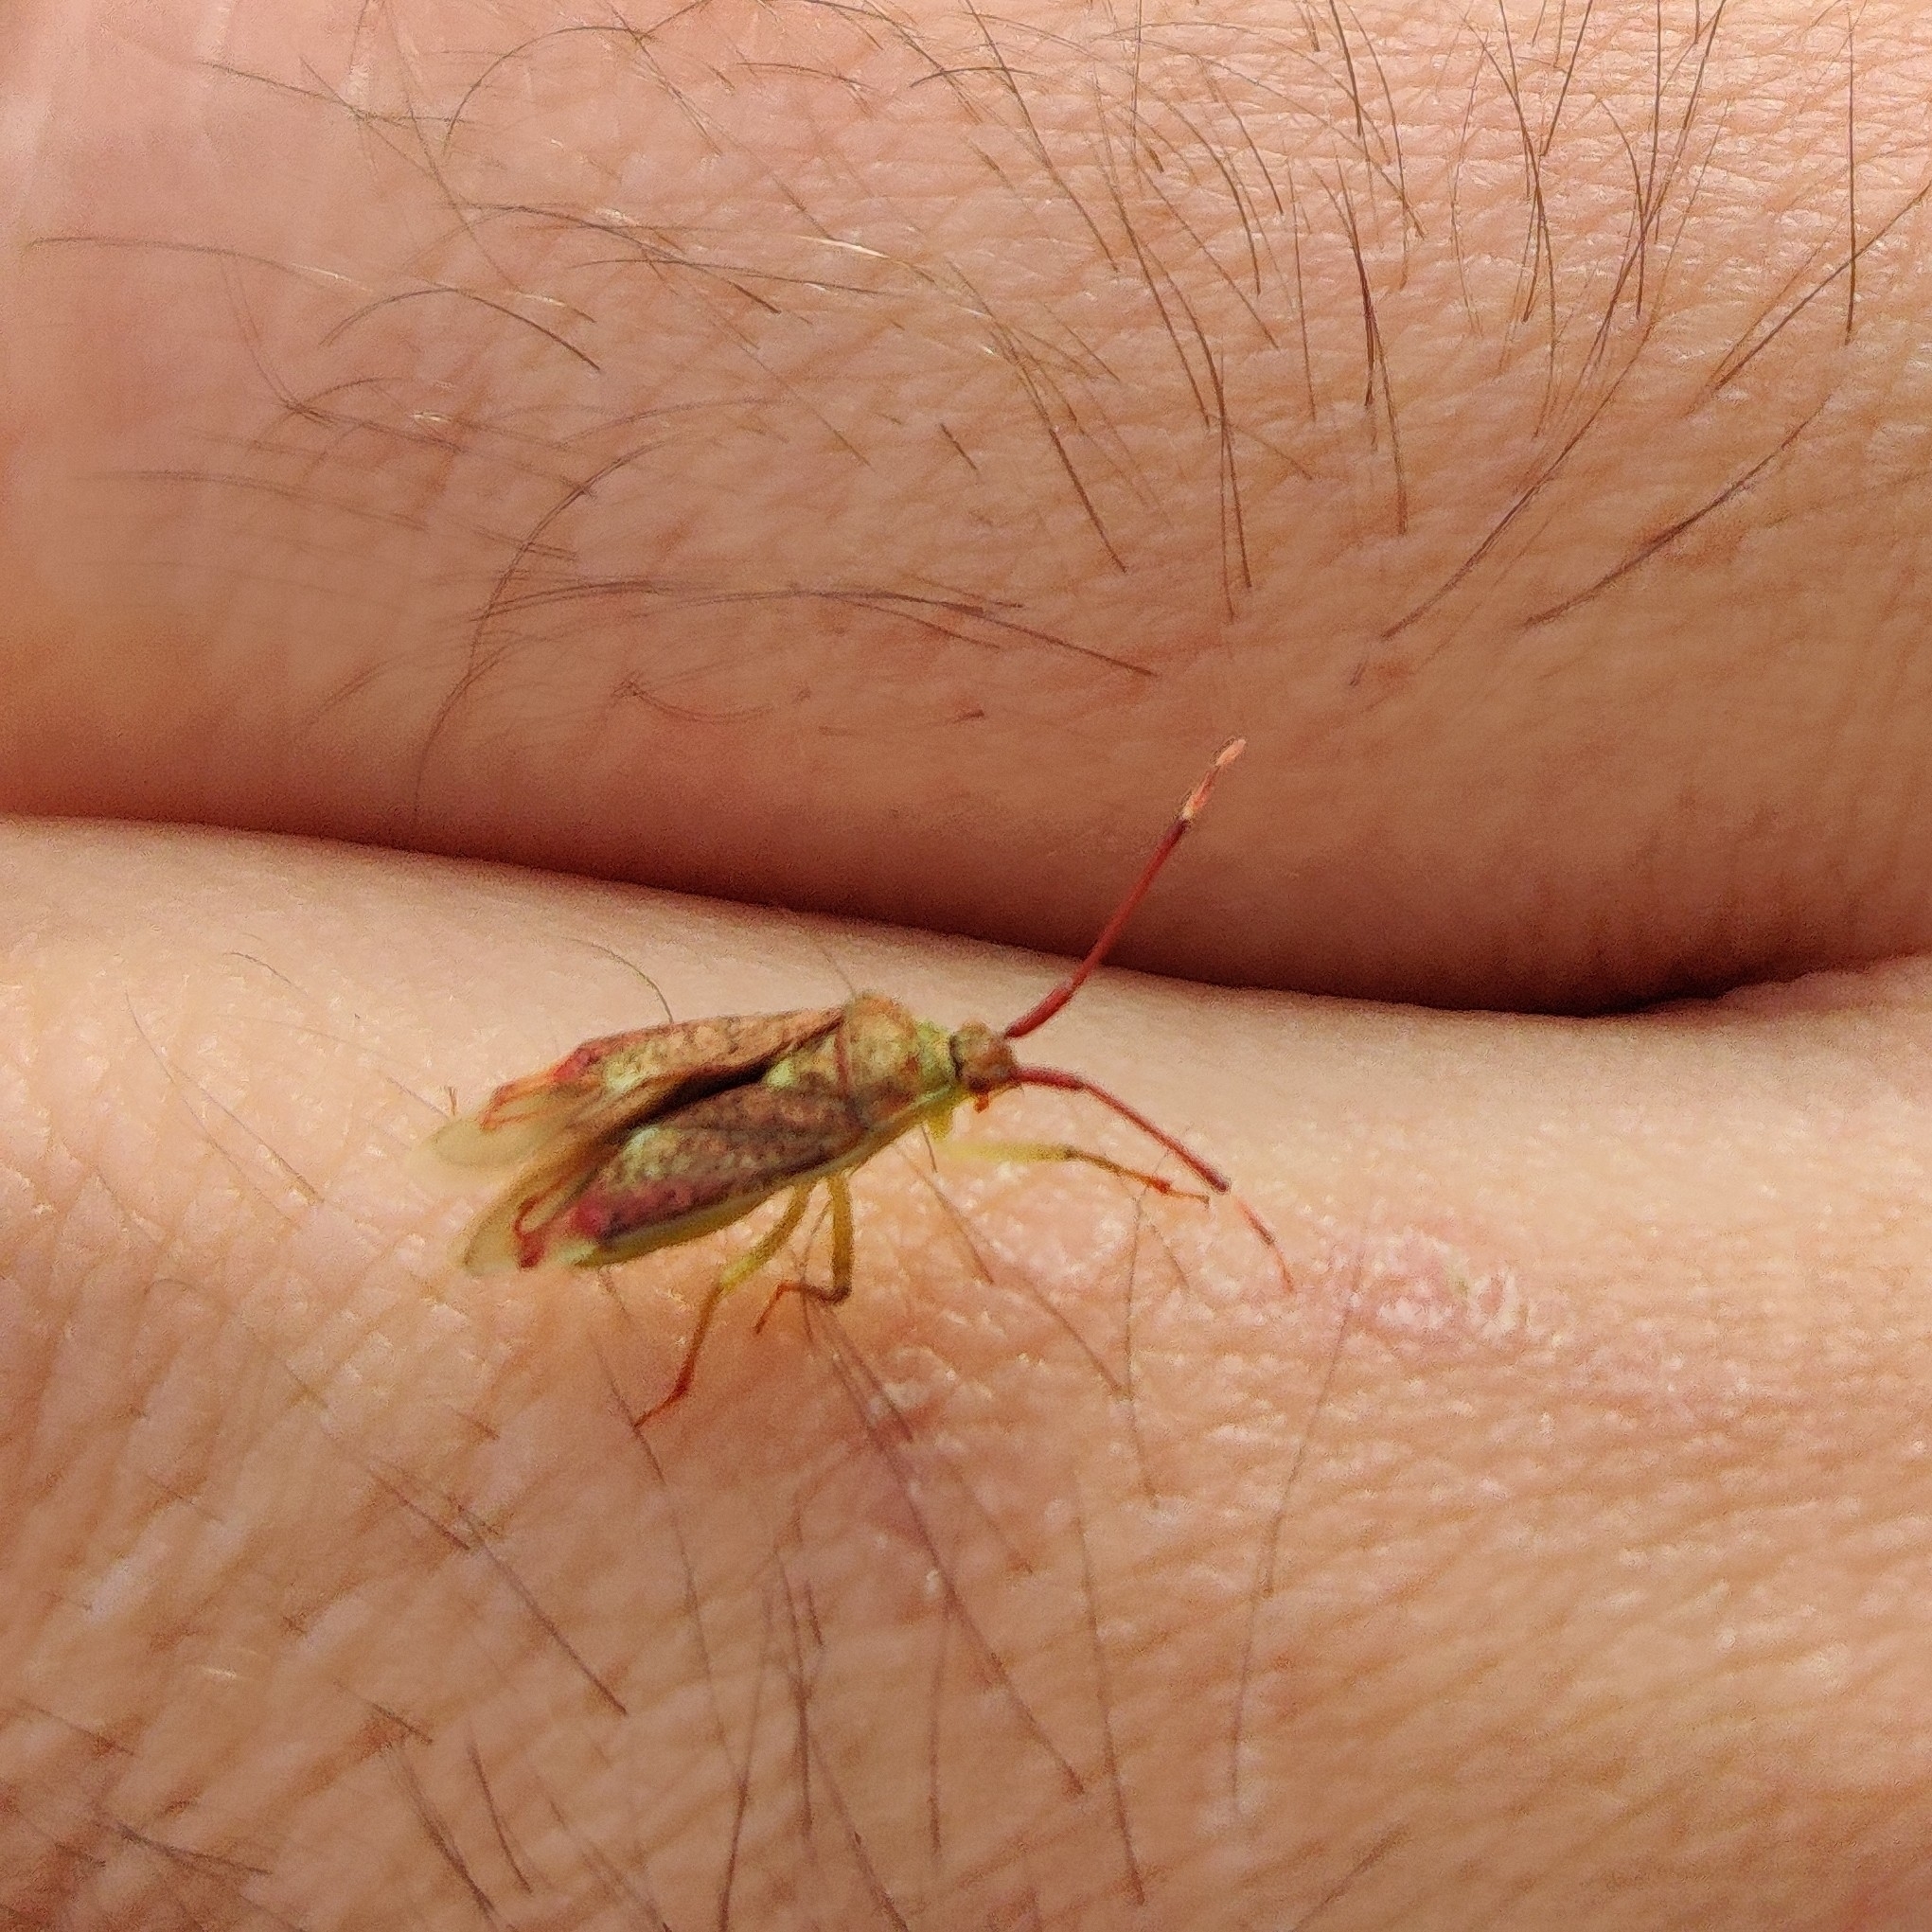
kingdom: Animalia
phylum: Arthropoda
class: Insecta
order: Hemiptera
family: Miridae
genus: Pantilius
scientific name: Pantilius tunicatus
